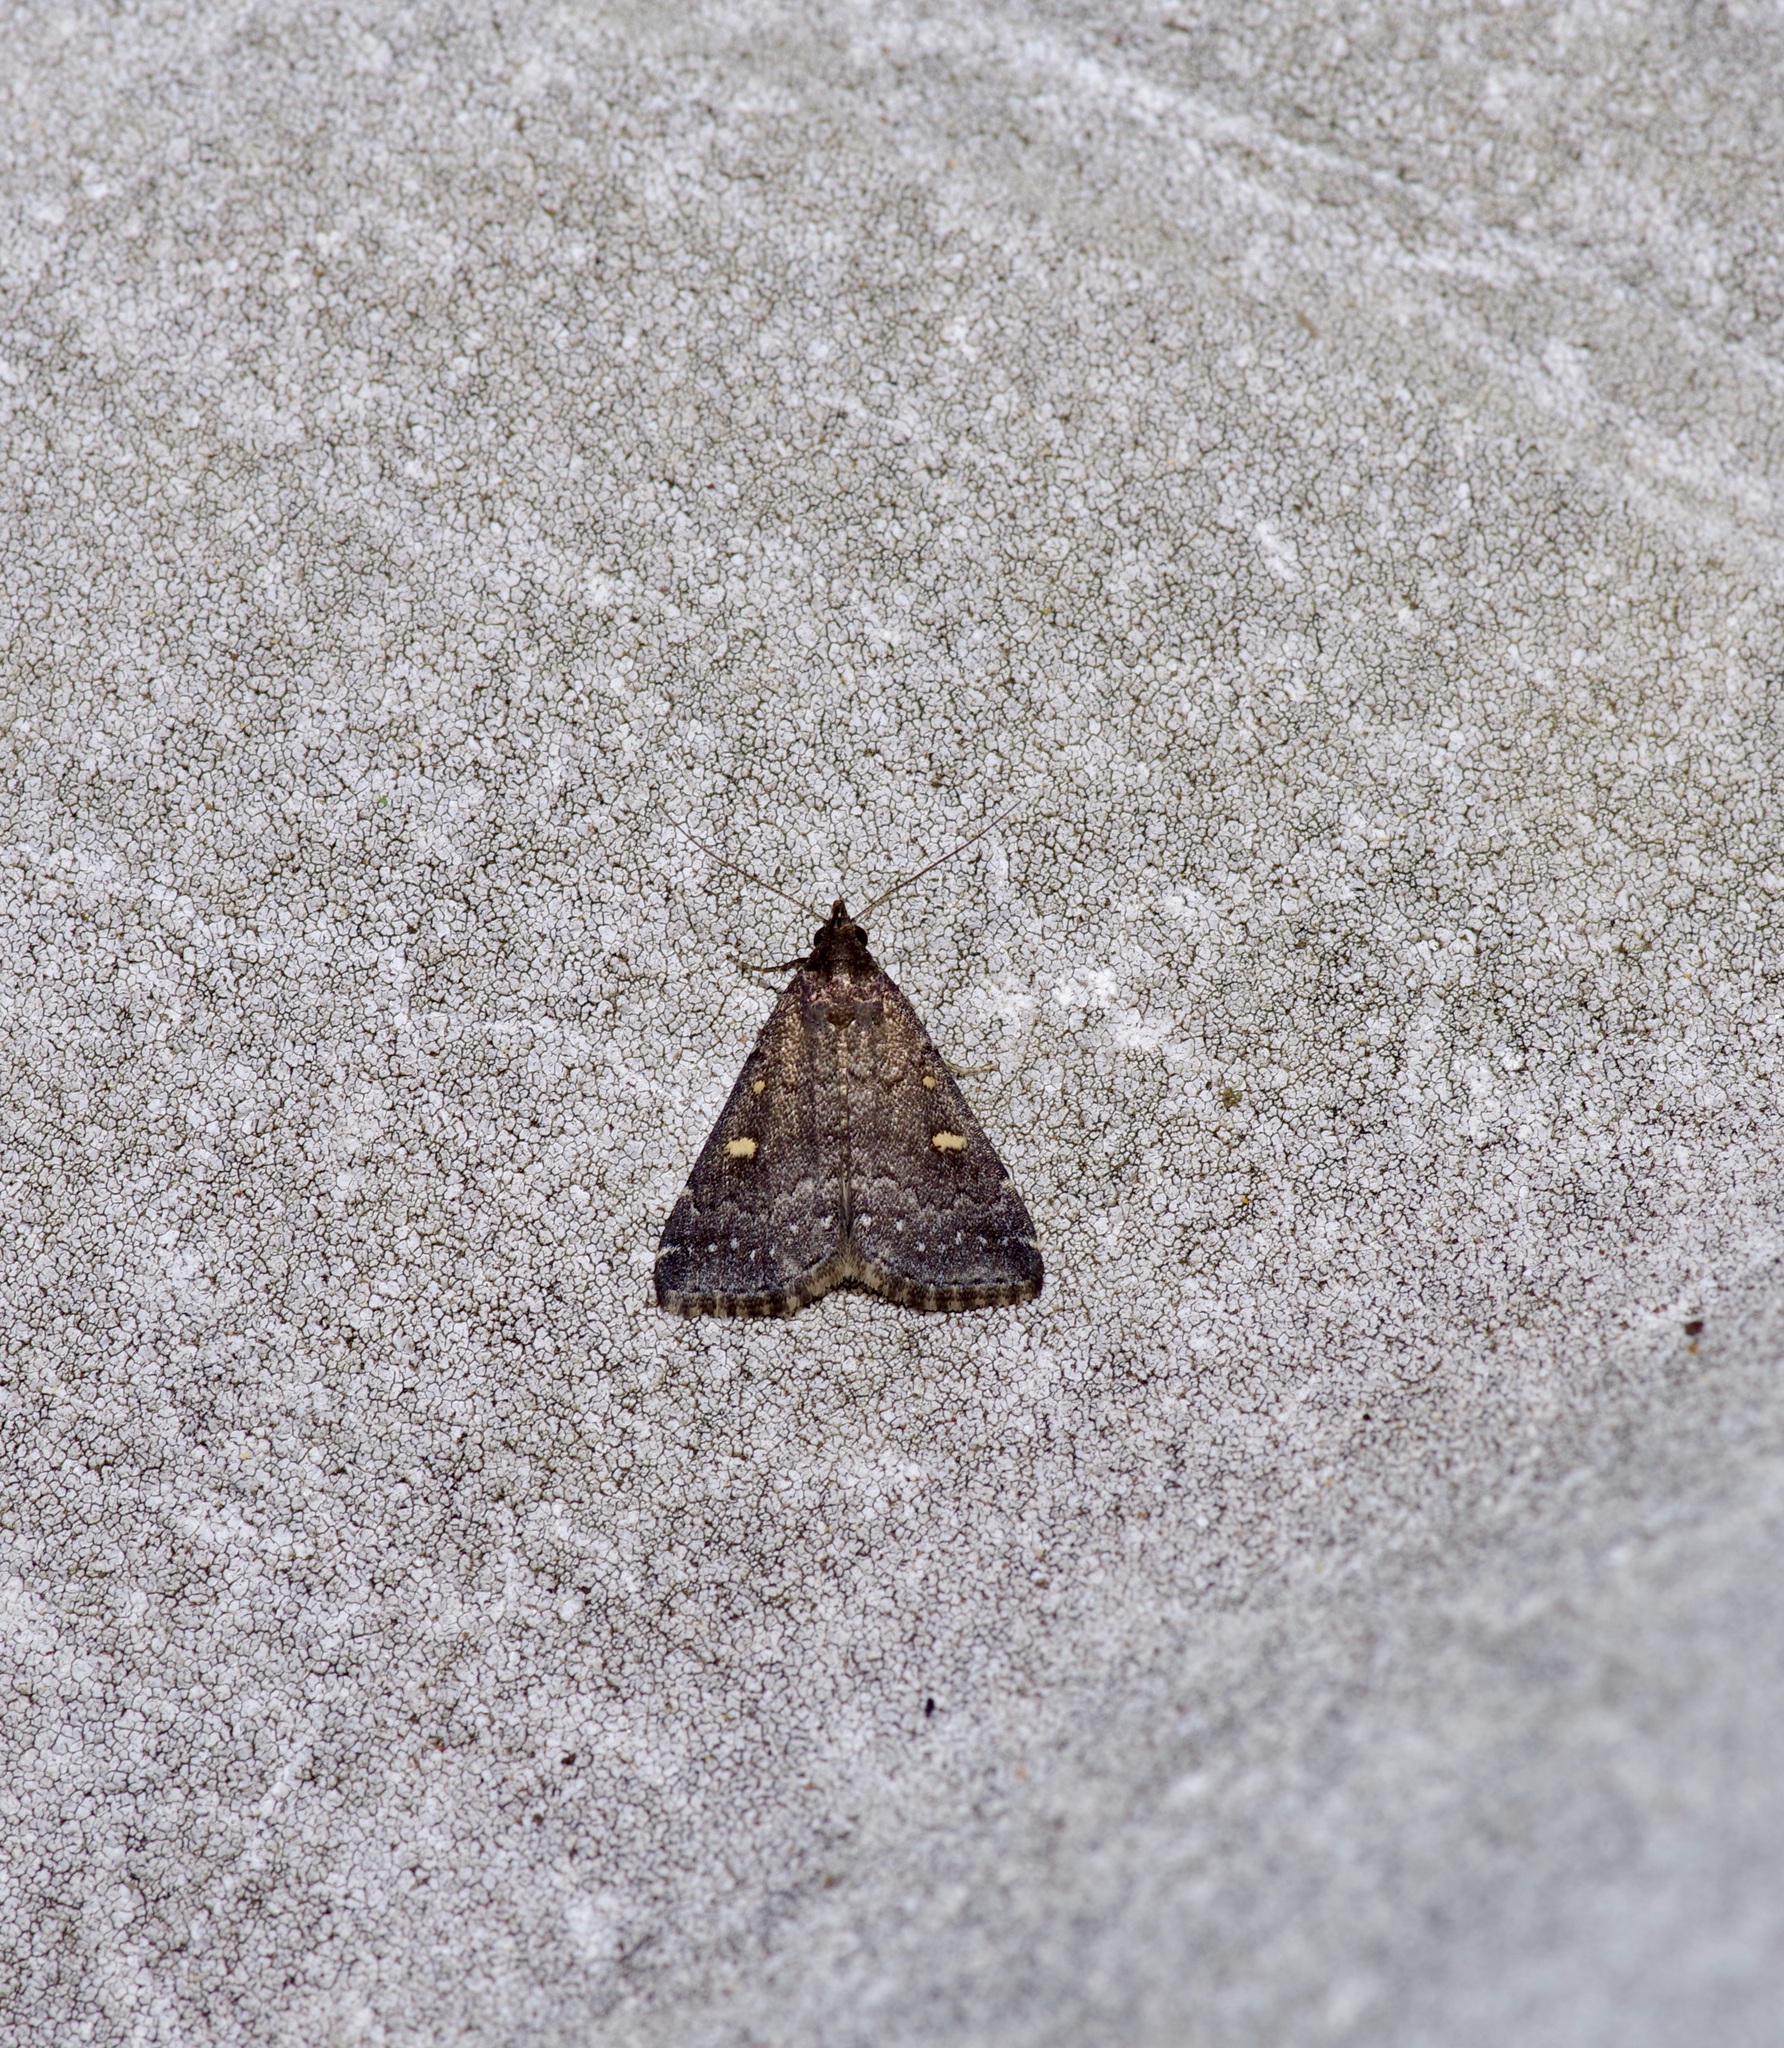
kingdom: Animalia
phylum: Arthropoda
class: Insecta
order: Lepidoptera
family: Erebidae
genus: Tetanolita
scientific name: Tetanolita mynesalis
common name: Smoky tetanolita moth
